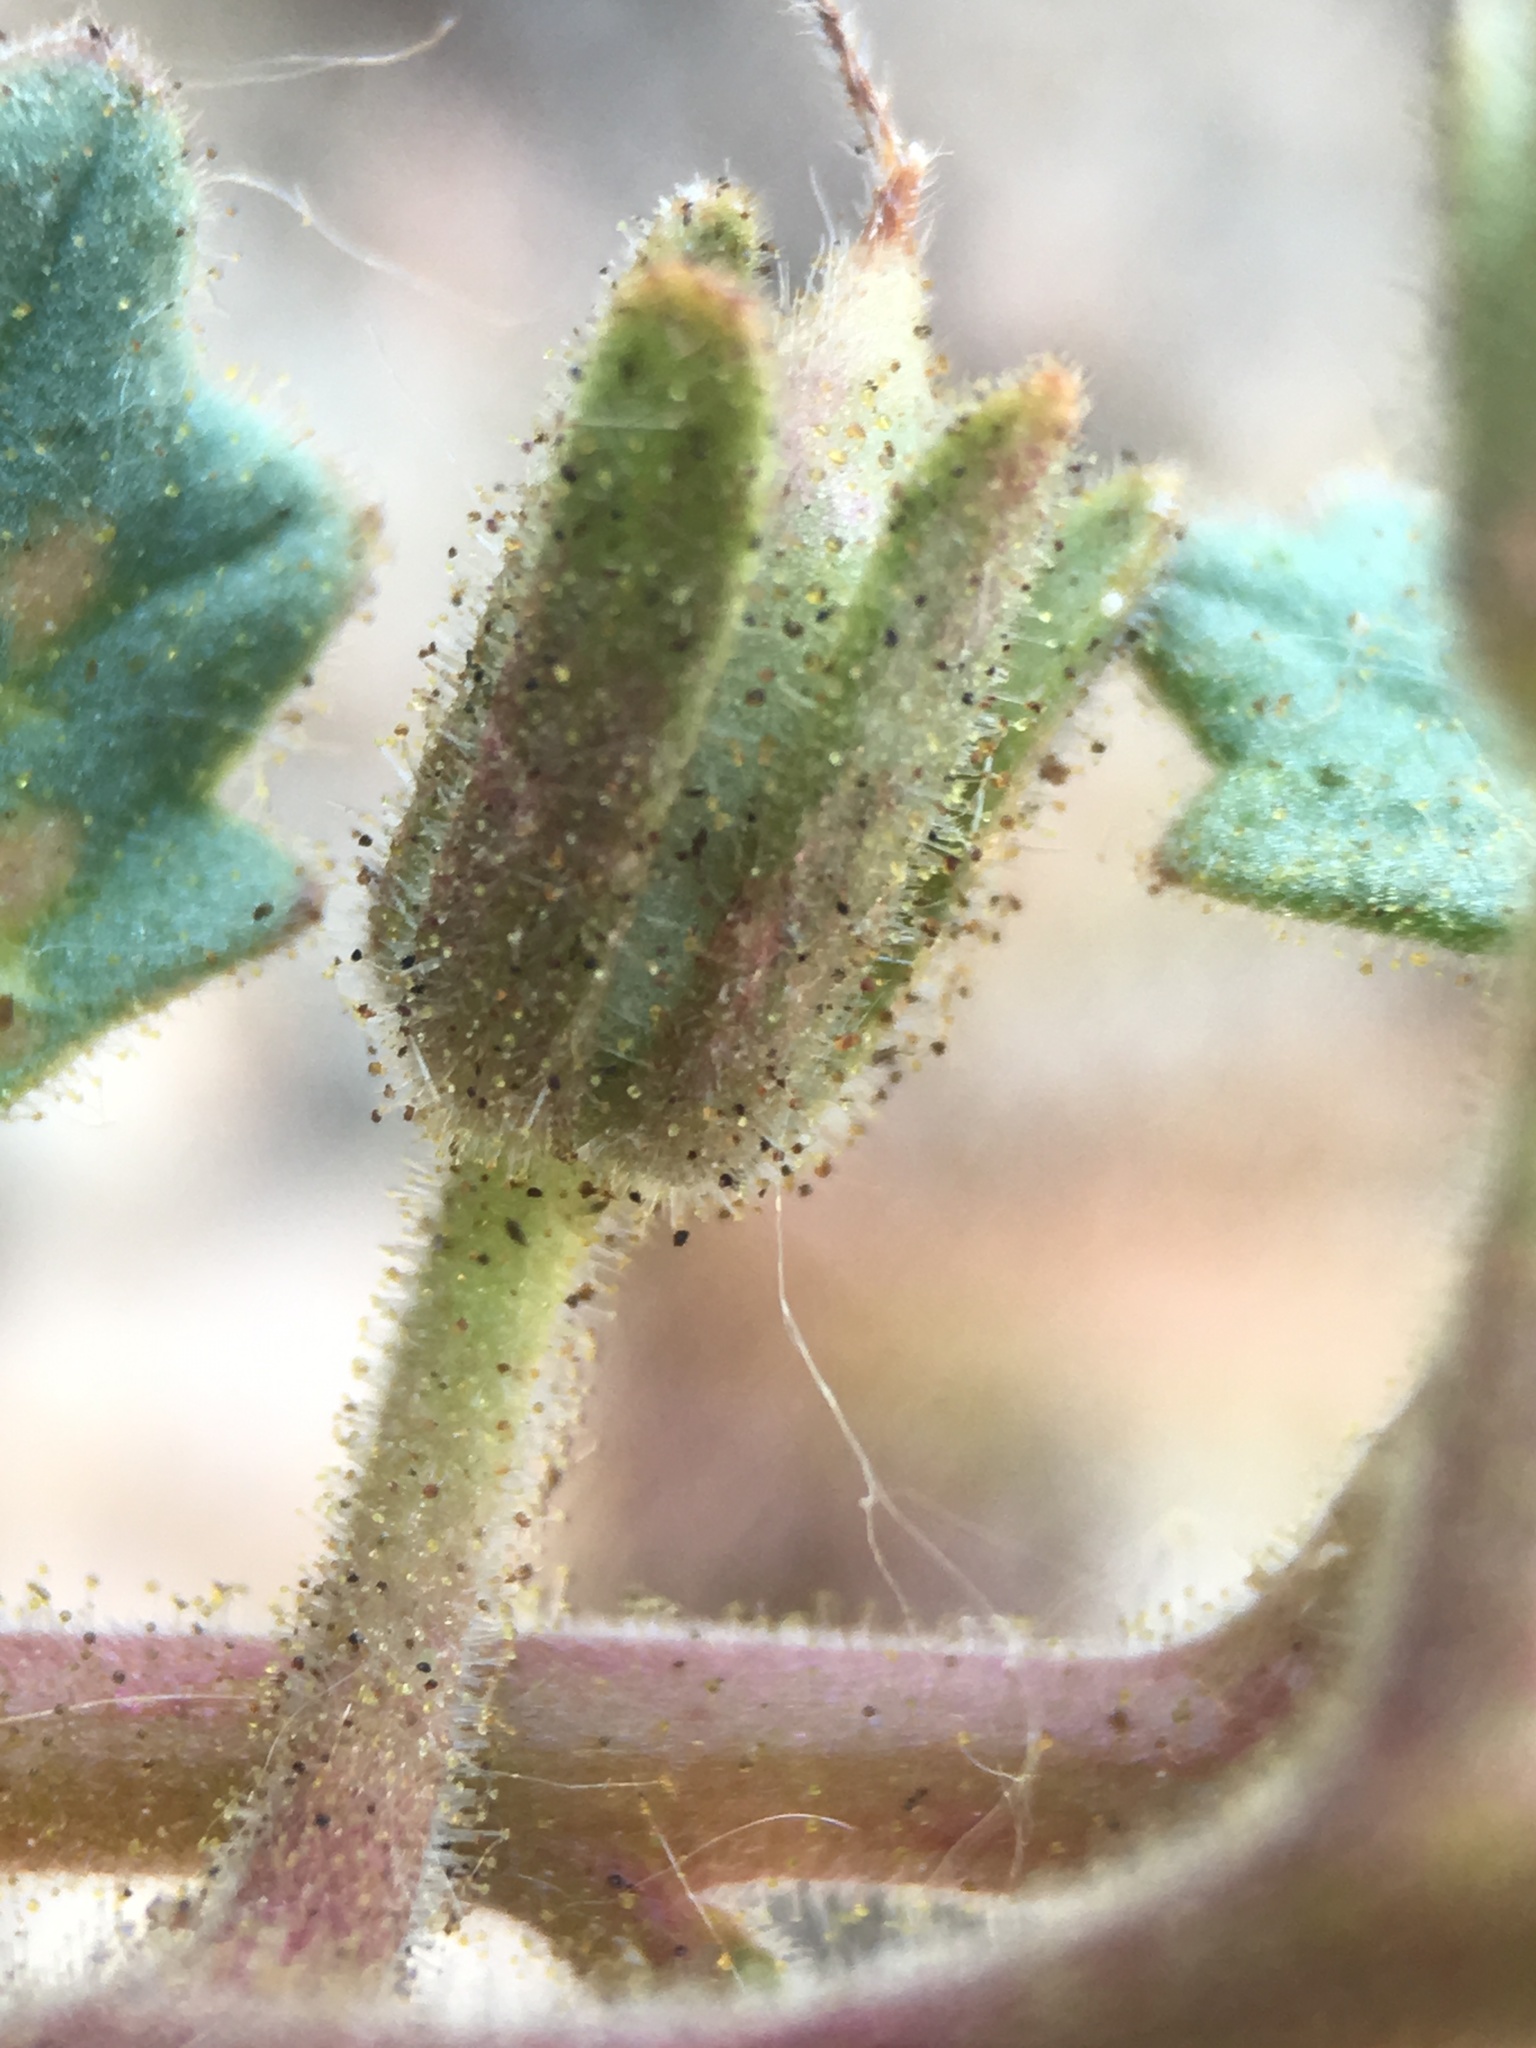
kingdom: Plantae
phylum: Tracheophyta
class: Magnoliopsida
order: Boraginales
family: Hydrophyllaceae
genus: Phacelia
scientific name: Phacelia nashiana
